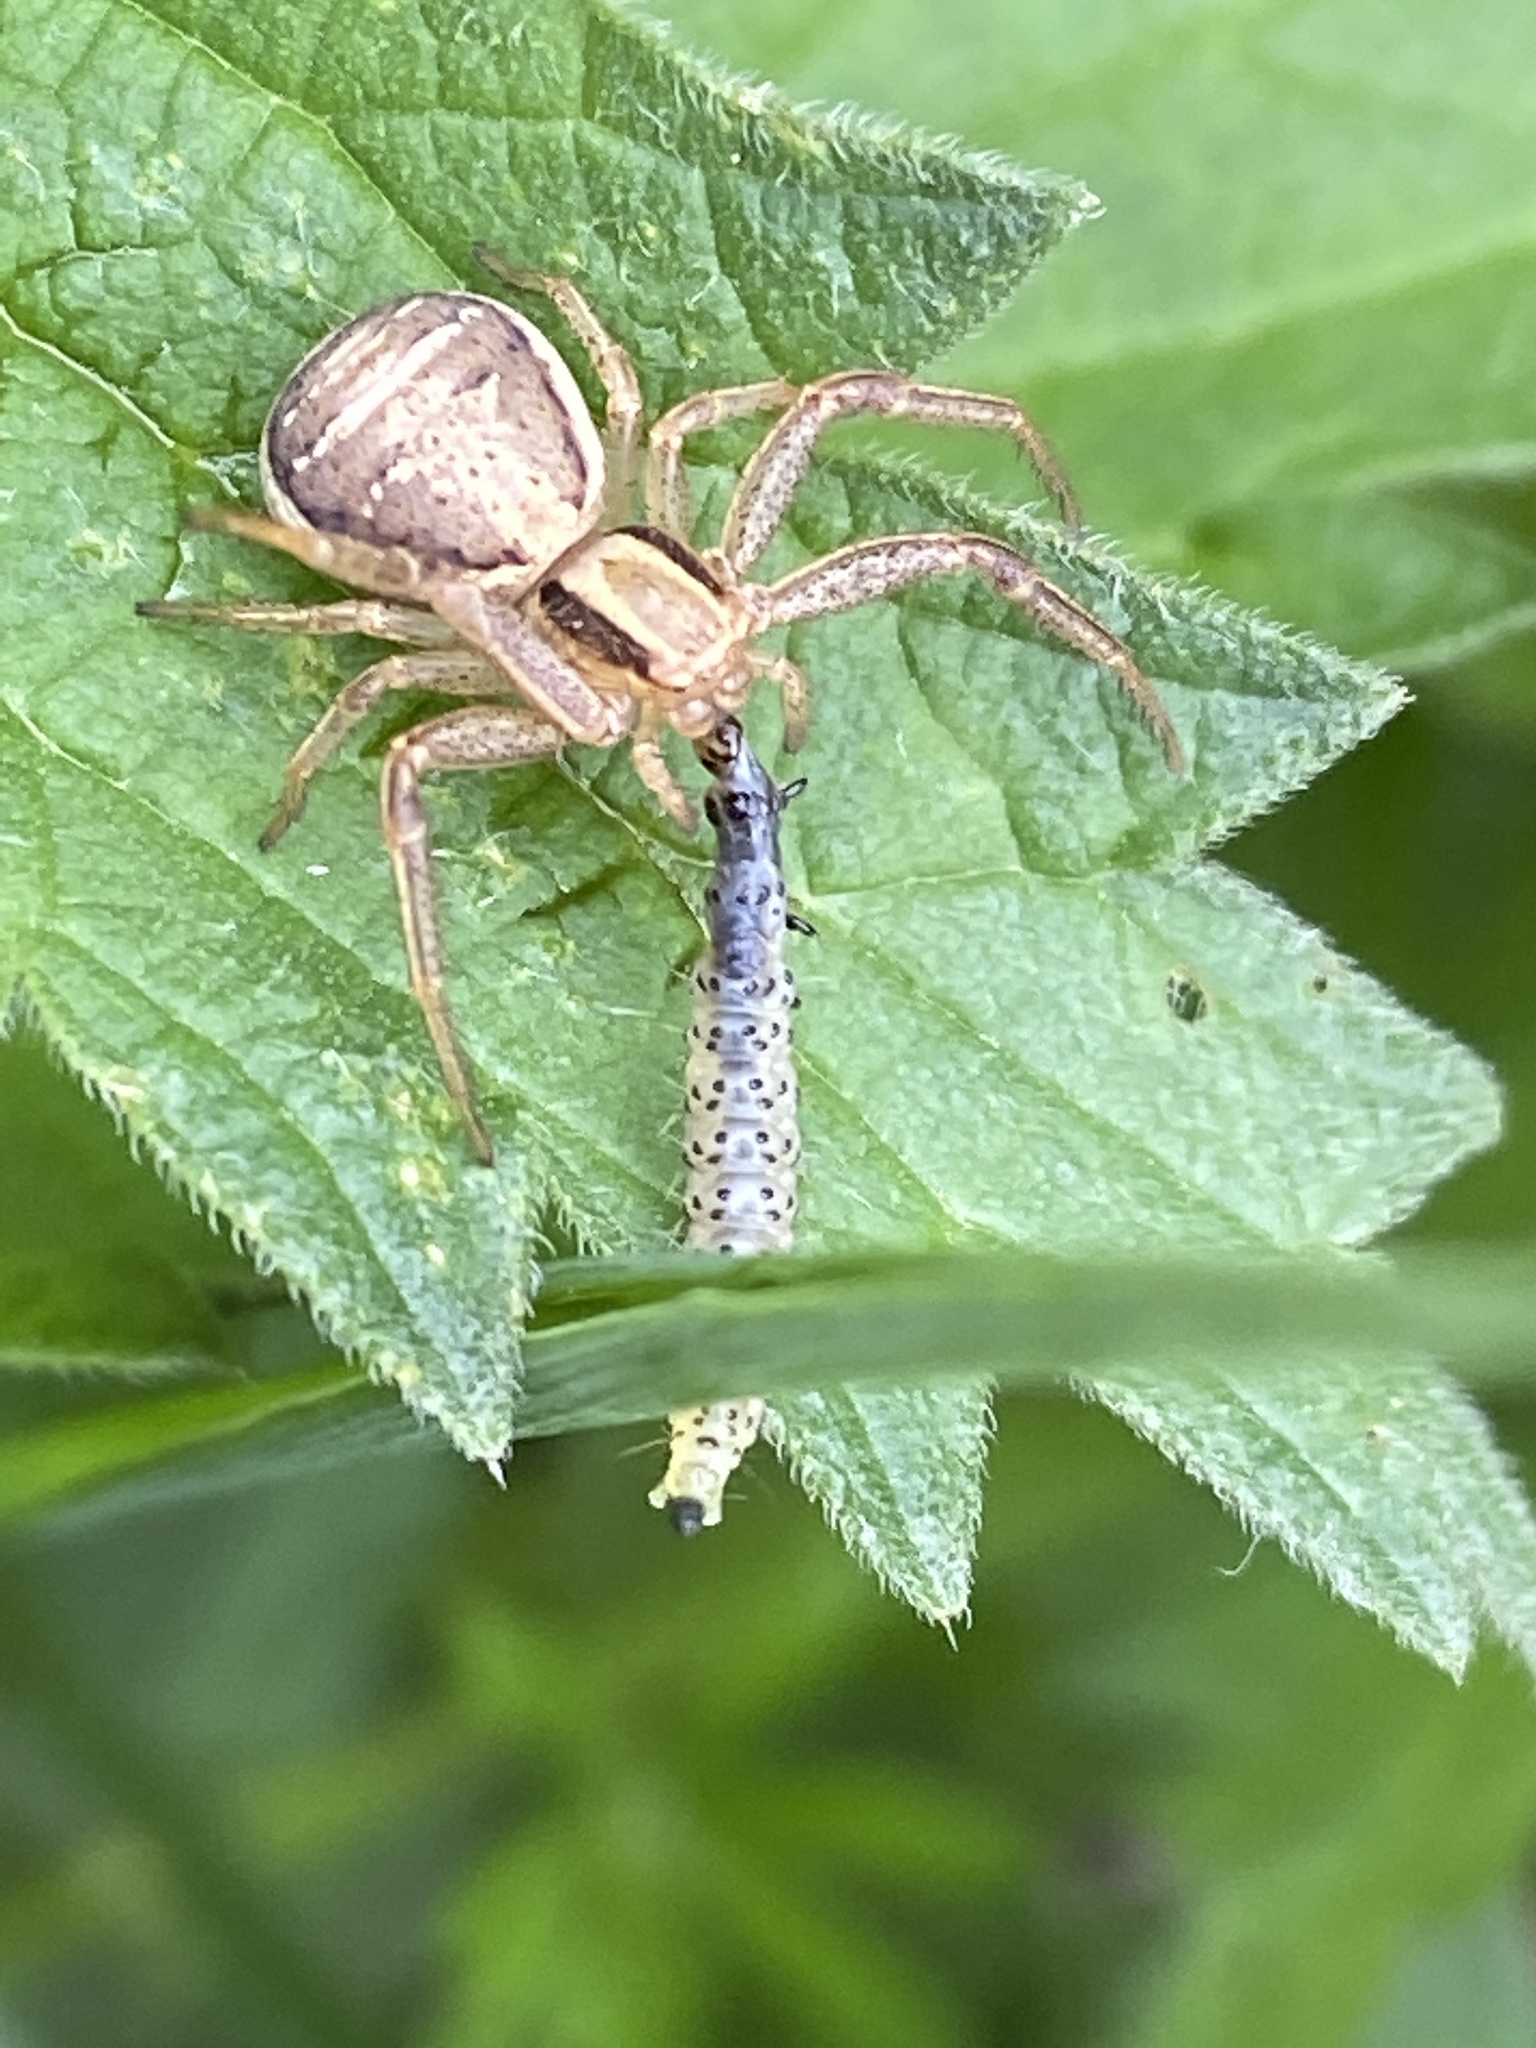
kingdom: Animalia
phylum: Arthropoda
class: Arachnida
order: Araneae
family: Thomisidae
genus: Xysticus
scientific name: Xysticus ulmi
